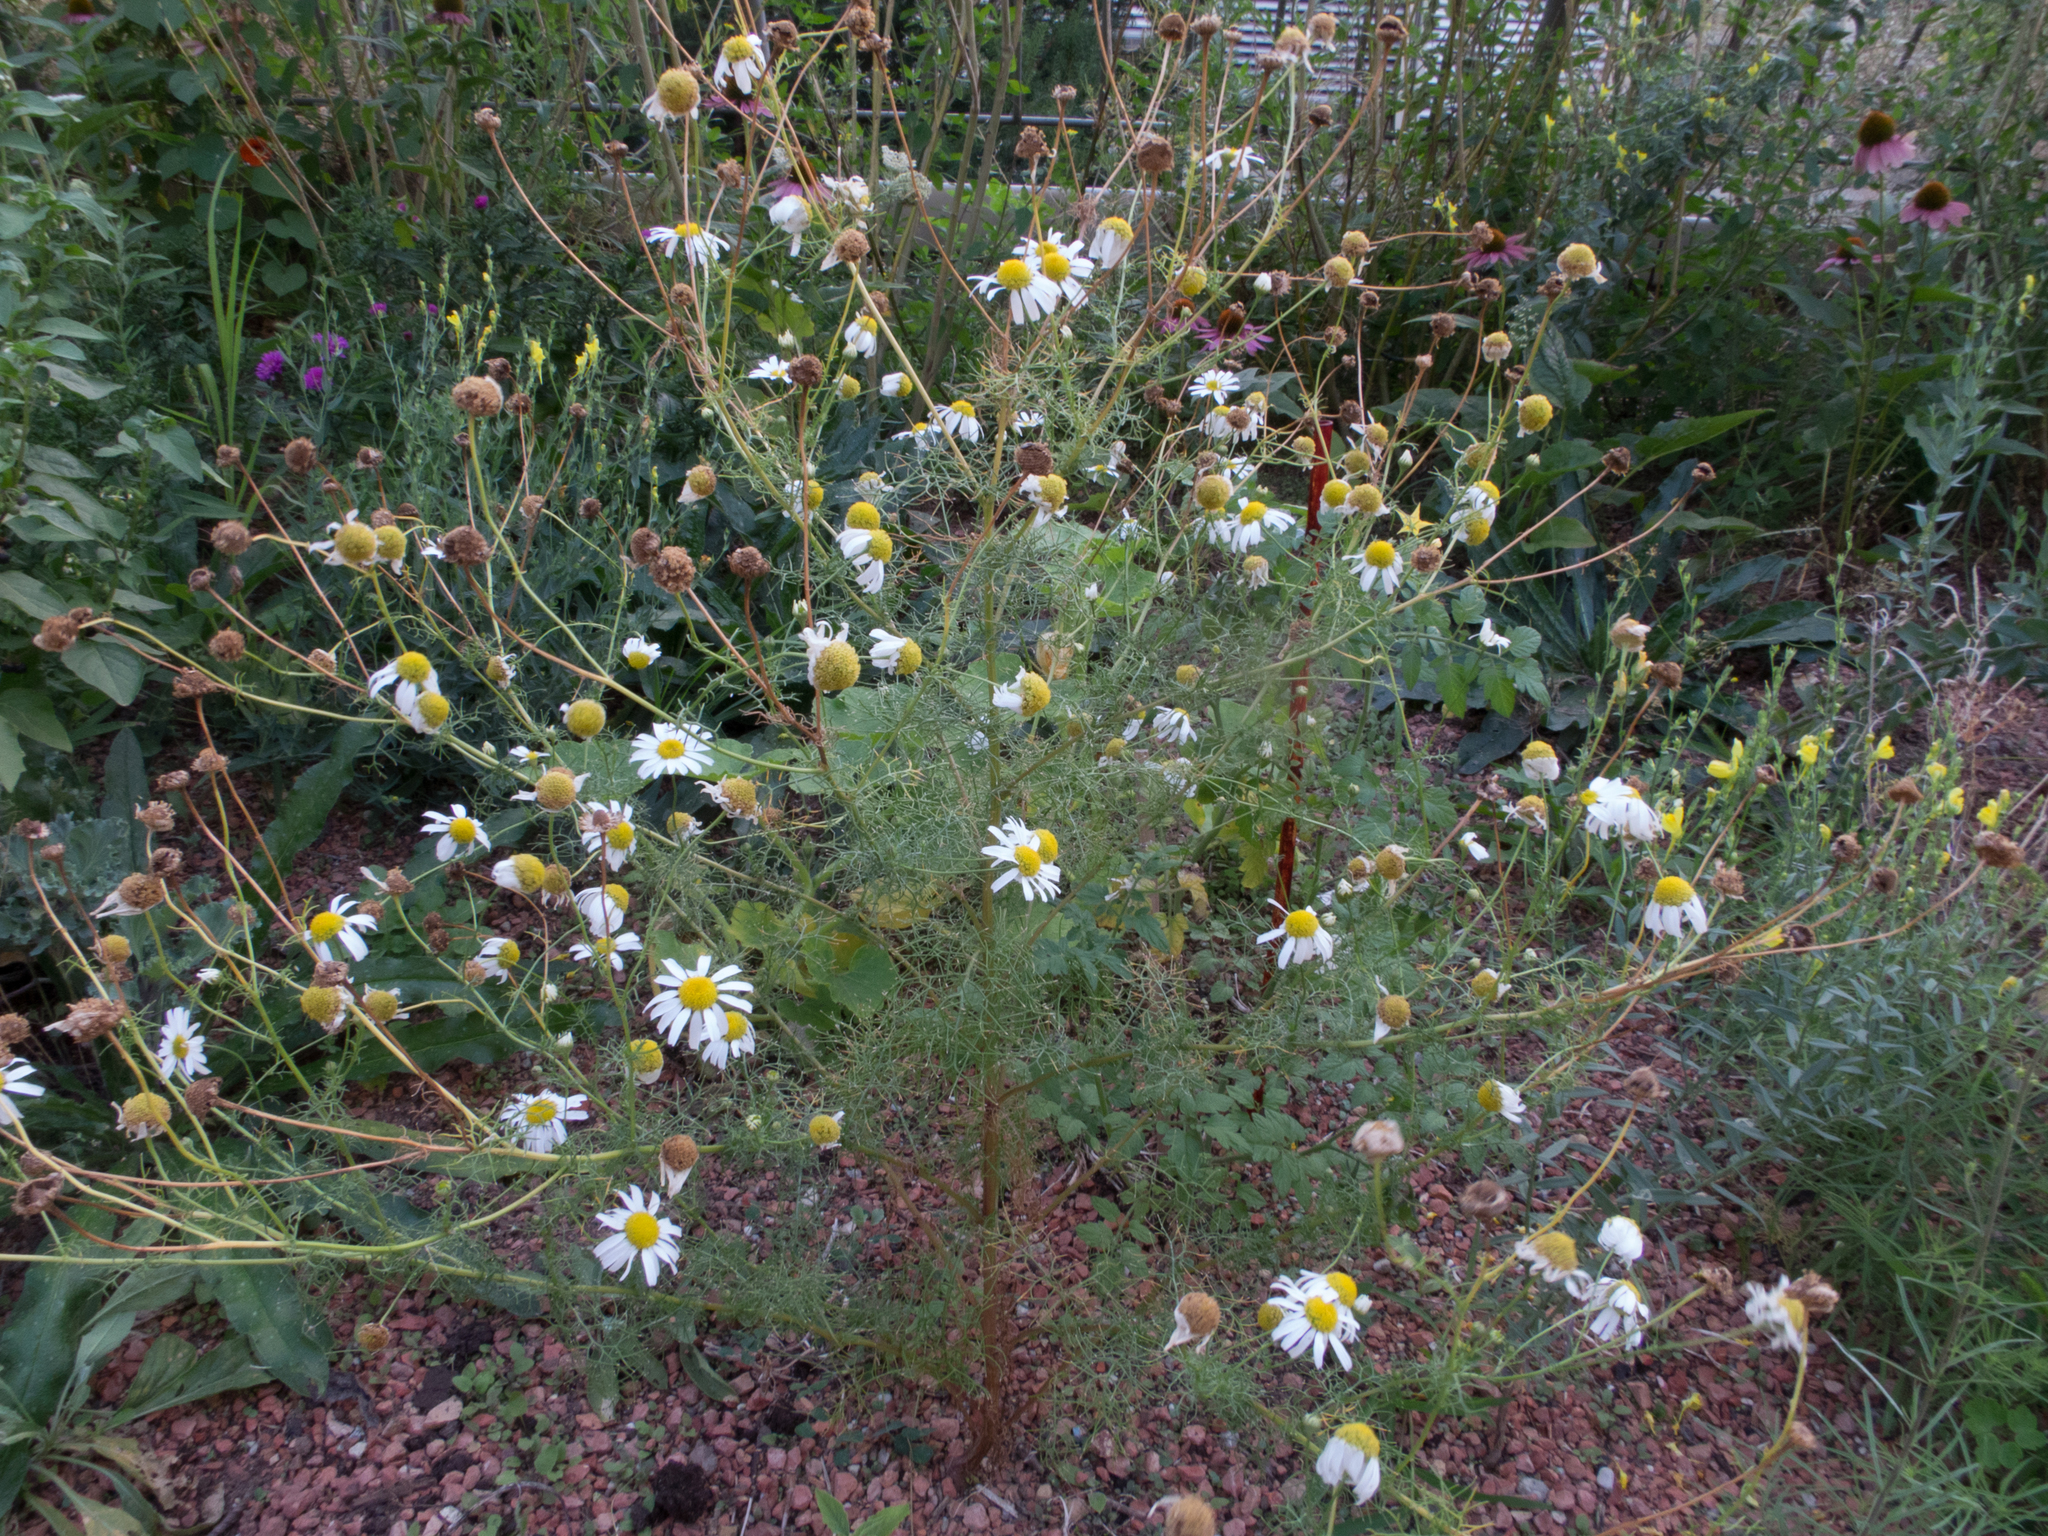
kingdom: Plantae
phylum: Tracheophyta
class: Magnoliopsida
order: Asterales
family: Asteraceae
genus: Tripleurospermum
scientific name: Tripleurospermum inodorum
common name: Scentless mayweed
